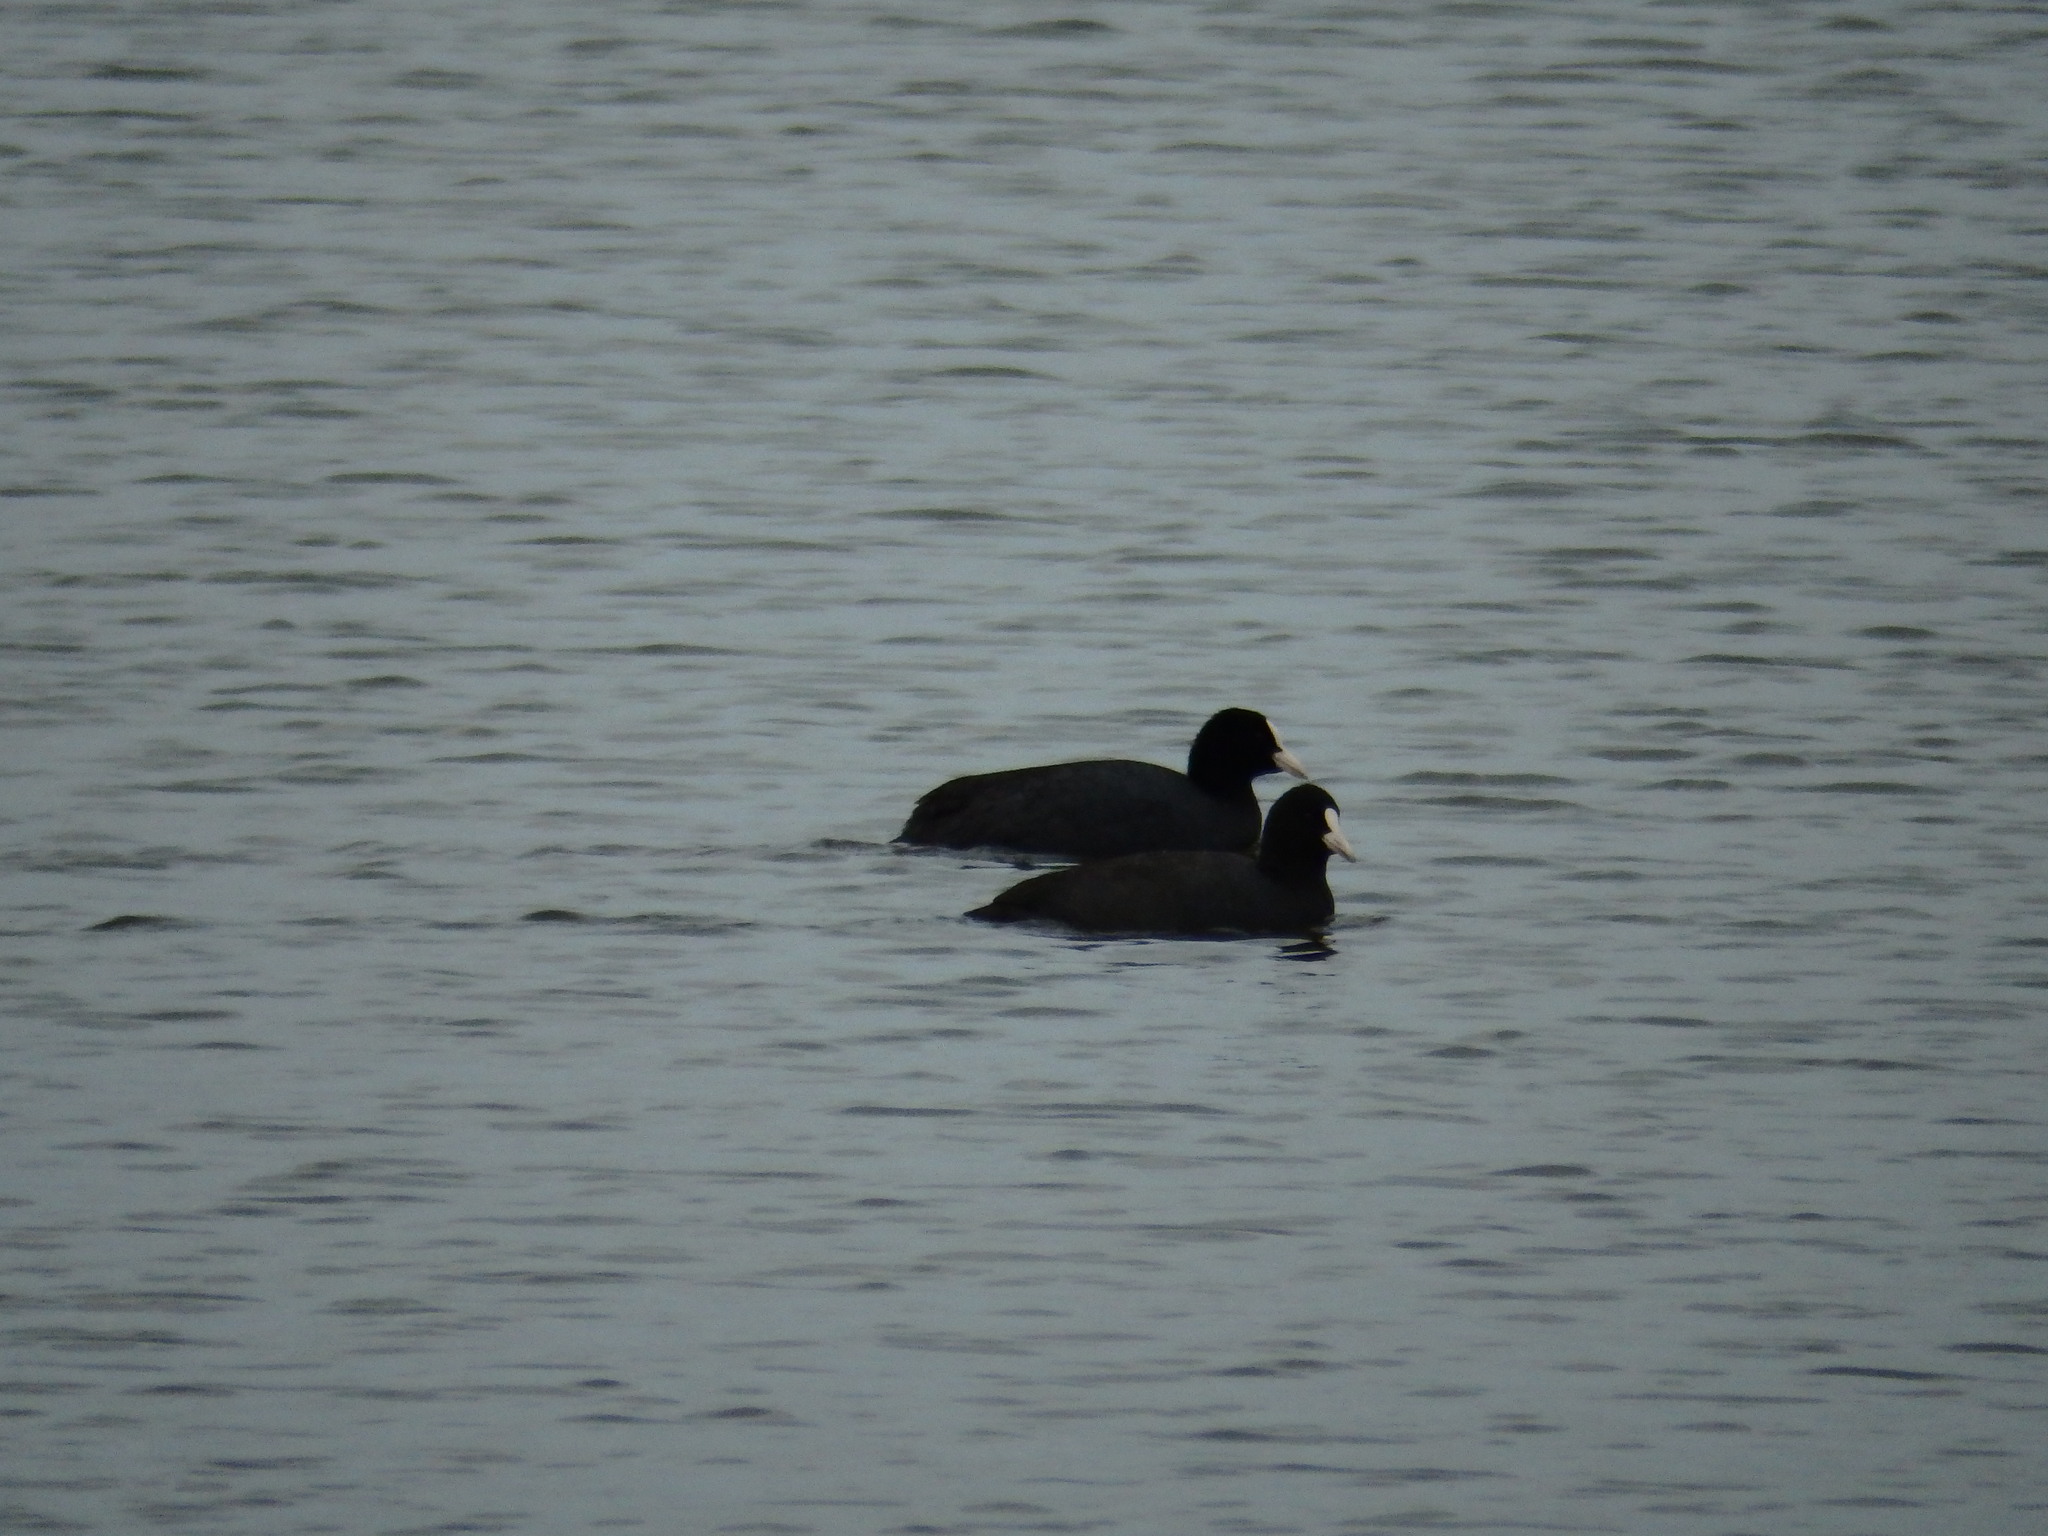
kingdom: Animalia
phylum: Chordata
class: Aves
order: Gruiformes
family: Rallidae
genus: Fulica
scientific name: Fulica atra
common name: Eurasian coot
